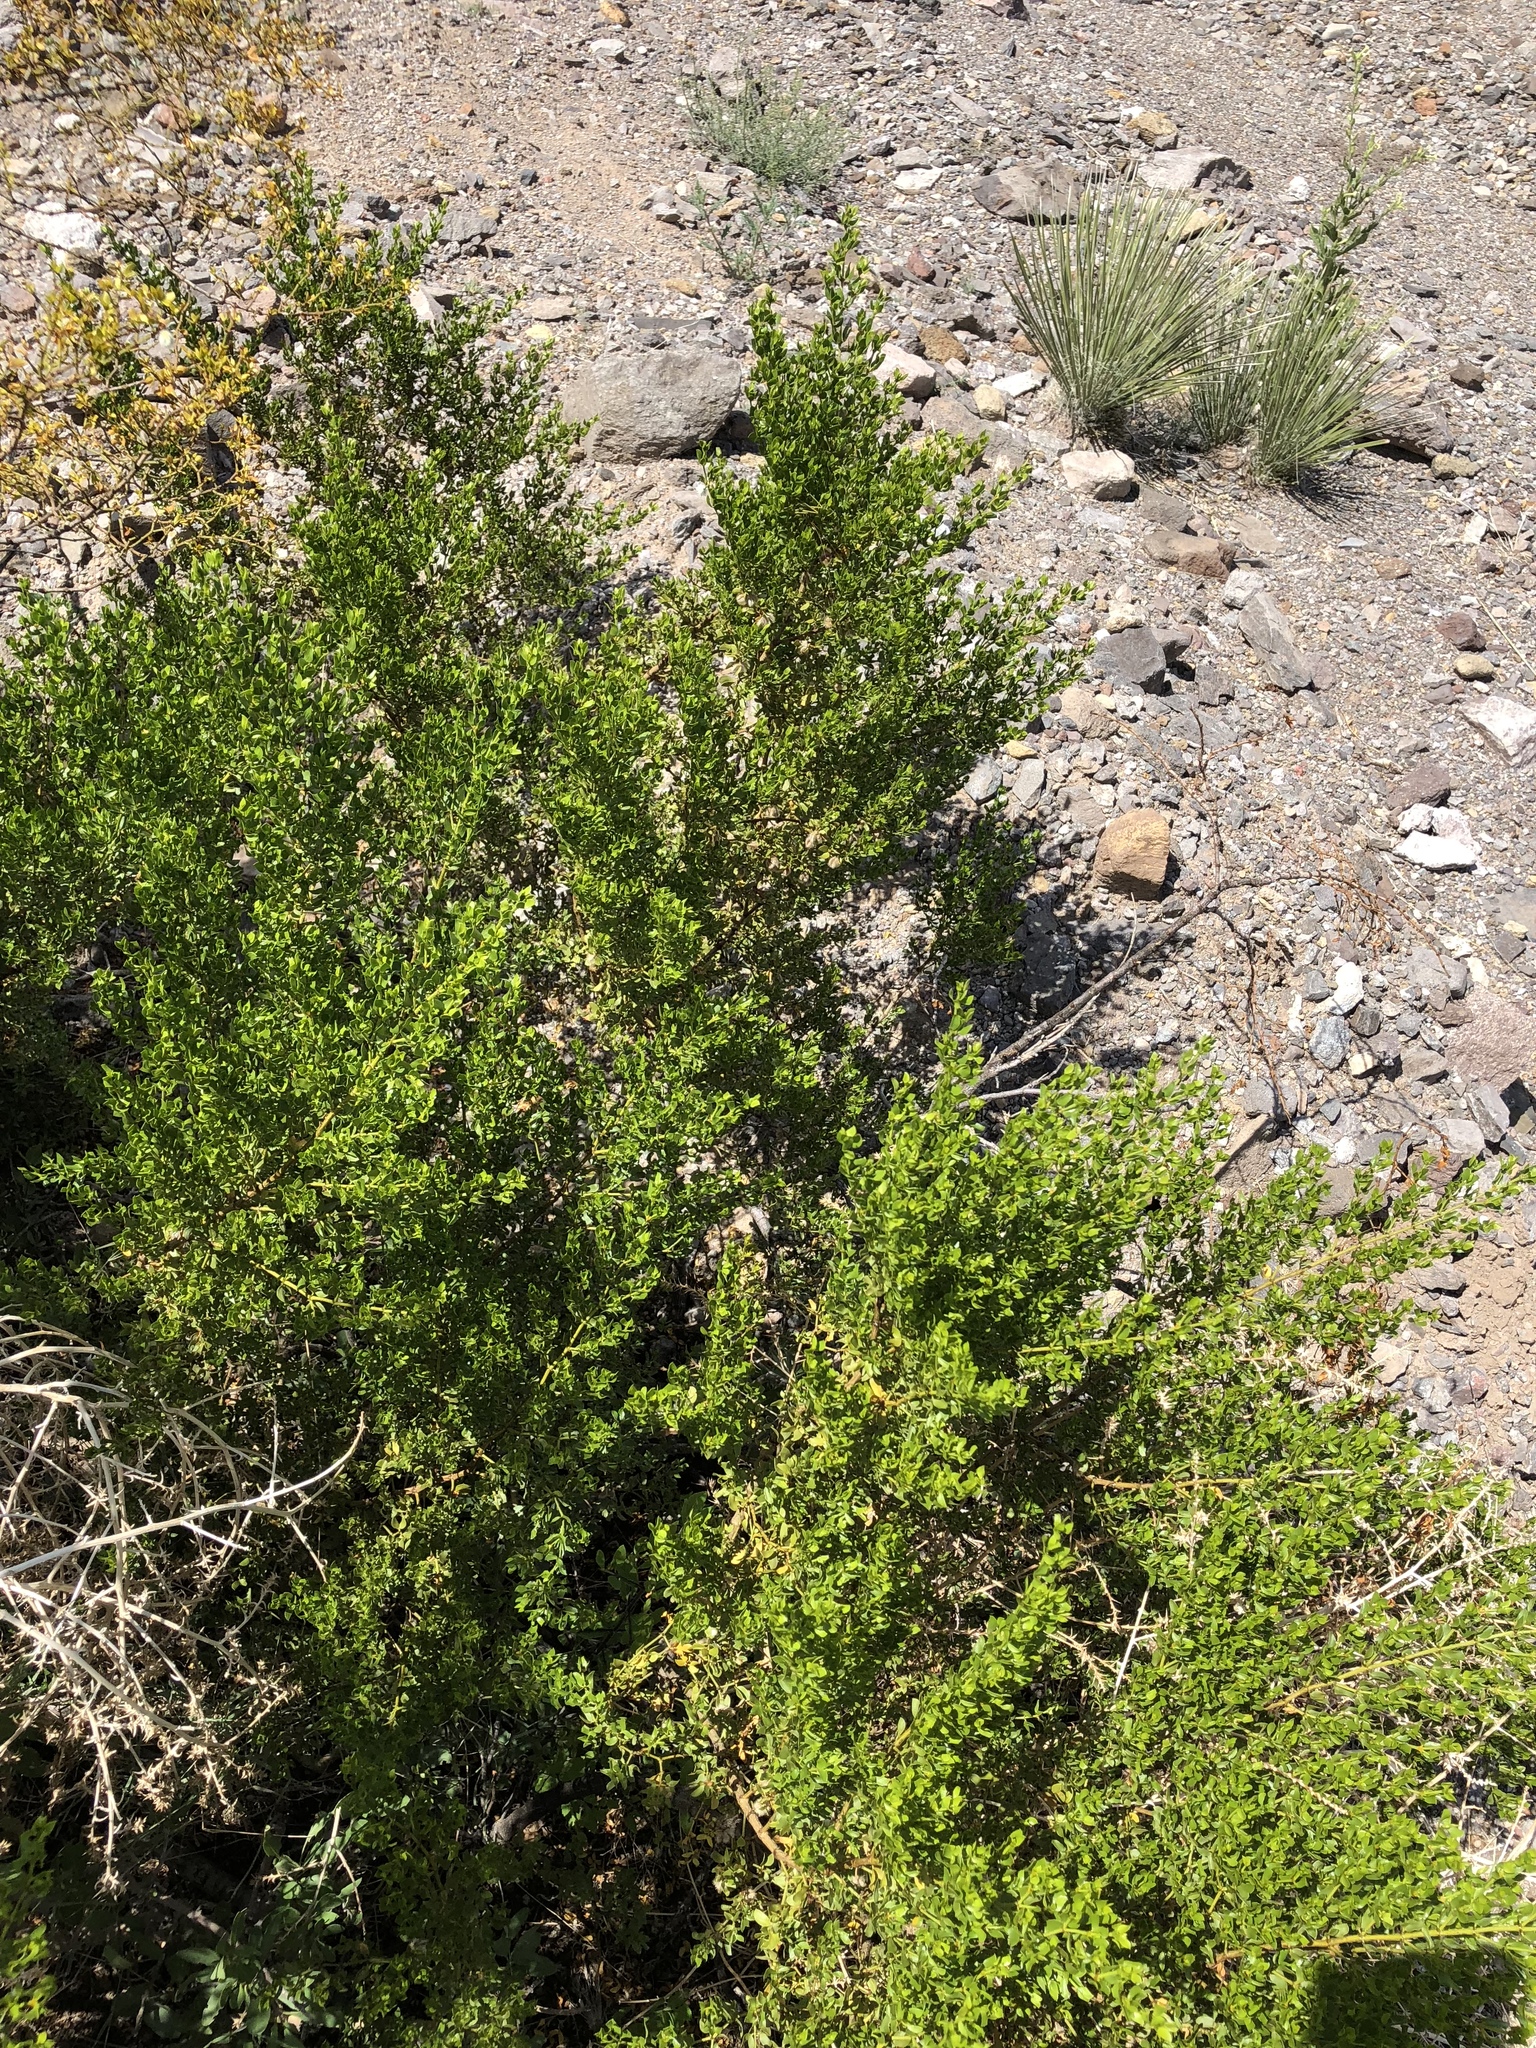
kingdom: Plantae
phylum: Tracheophyta
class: Magnoliopsida
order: Zygophyllales
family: Zygophyllaceae
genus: Larrea
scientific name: Larrea tridentata
